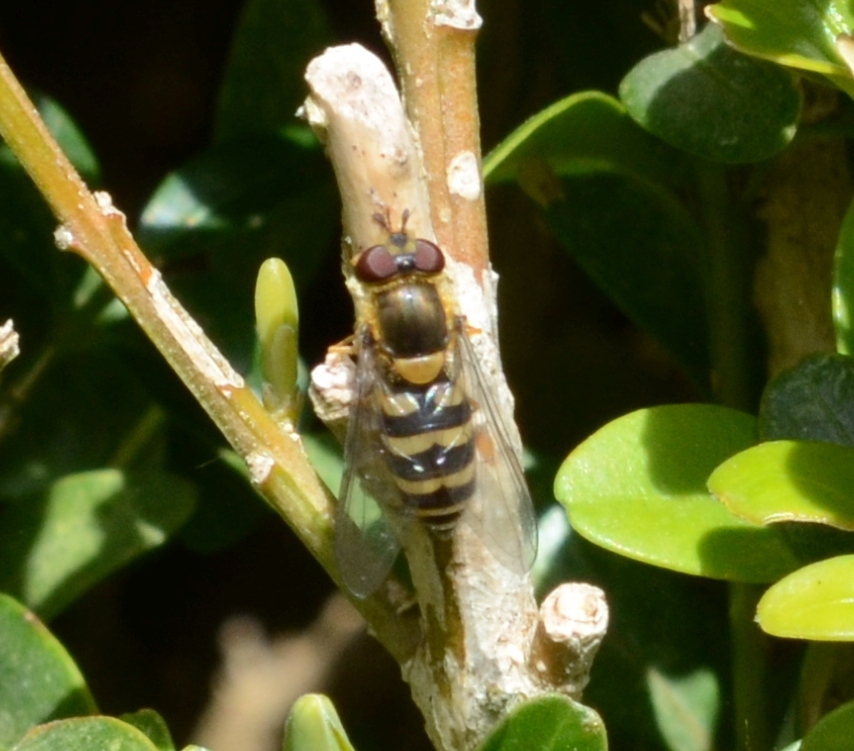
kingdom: Animalia
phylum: Arthropoda
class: Insecta
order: Diptera
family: Syrphidae
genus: Syrphus
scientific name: Syrphus
